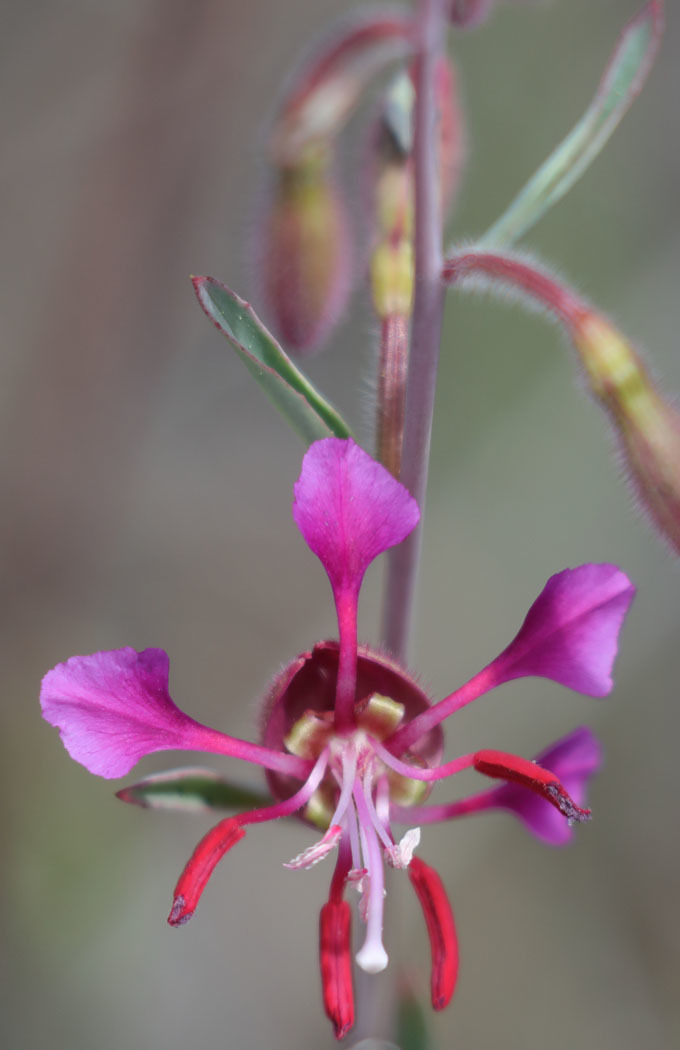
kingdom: Plantae
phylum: Tracheophyta
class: Magnoliopsida
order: Myrtales
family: Onagraceae
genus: Clarkia
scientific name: Clarkia unguiculata
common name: Clarkia
